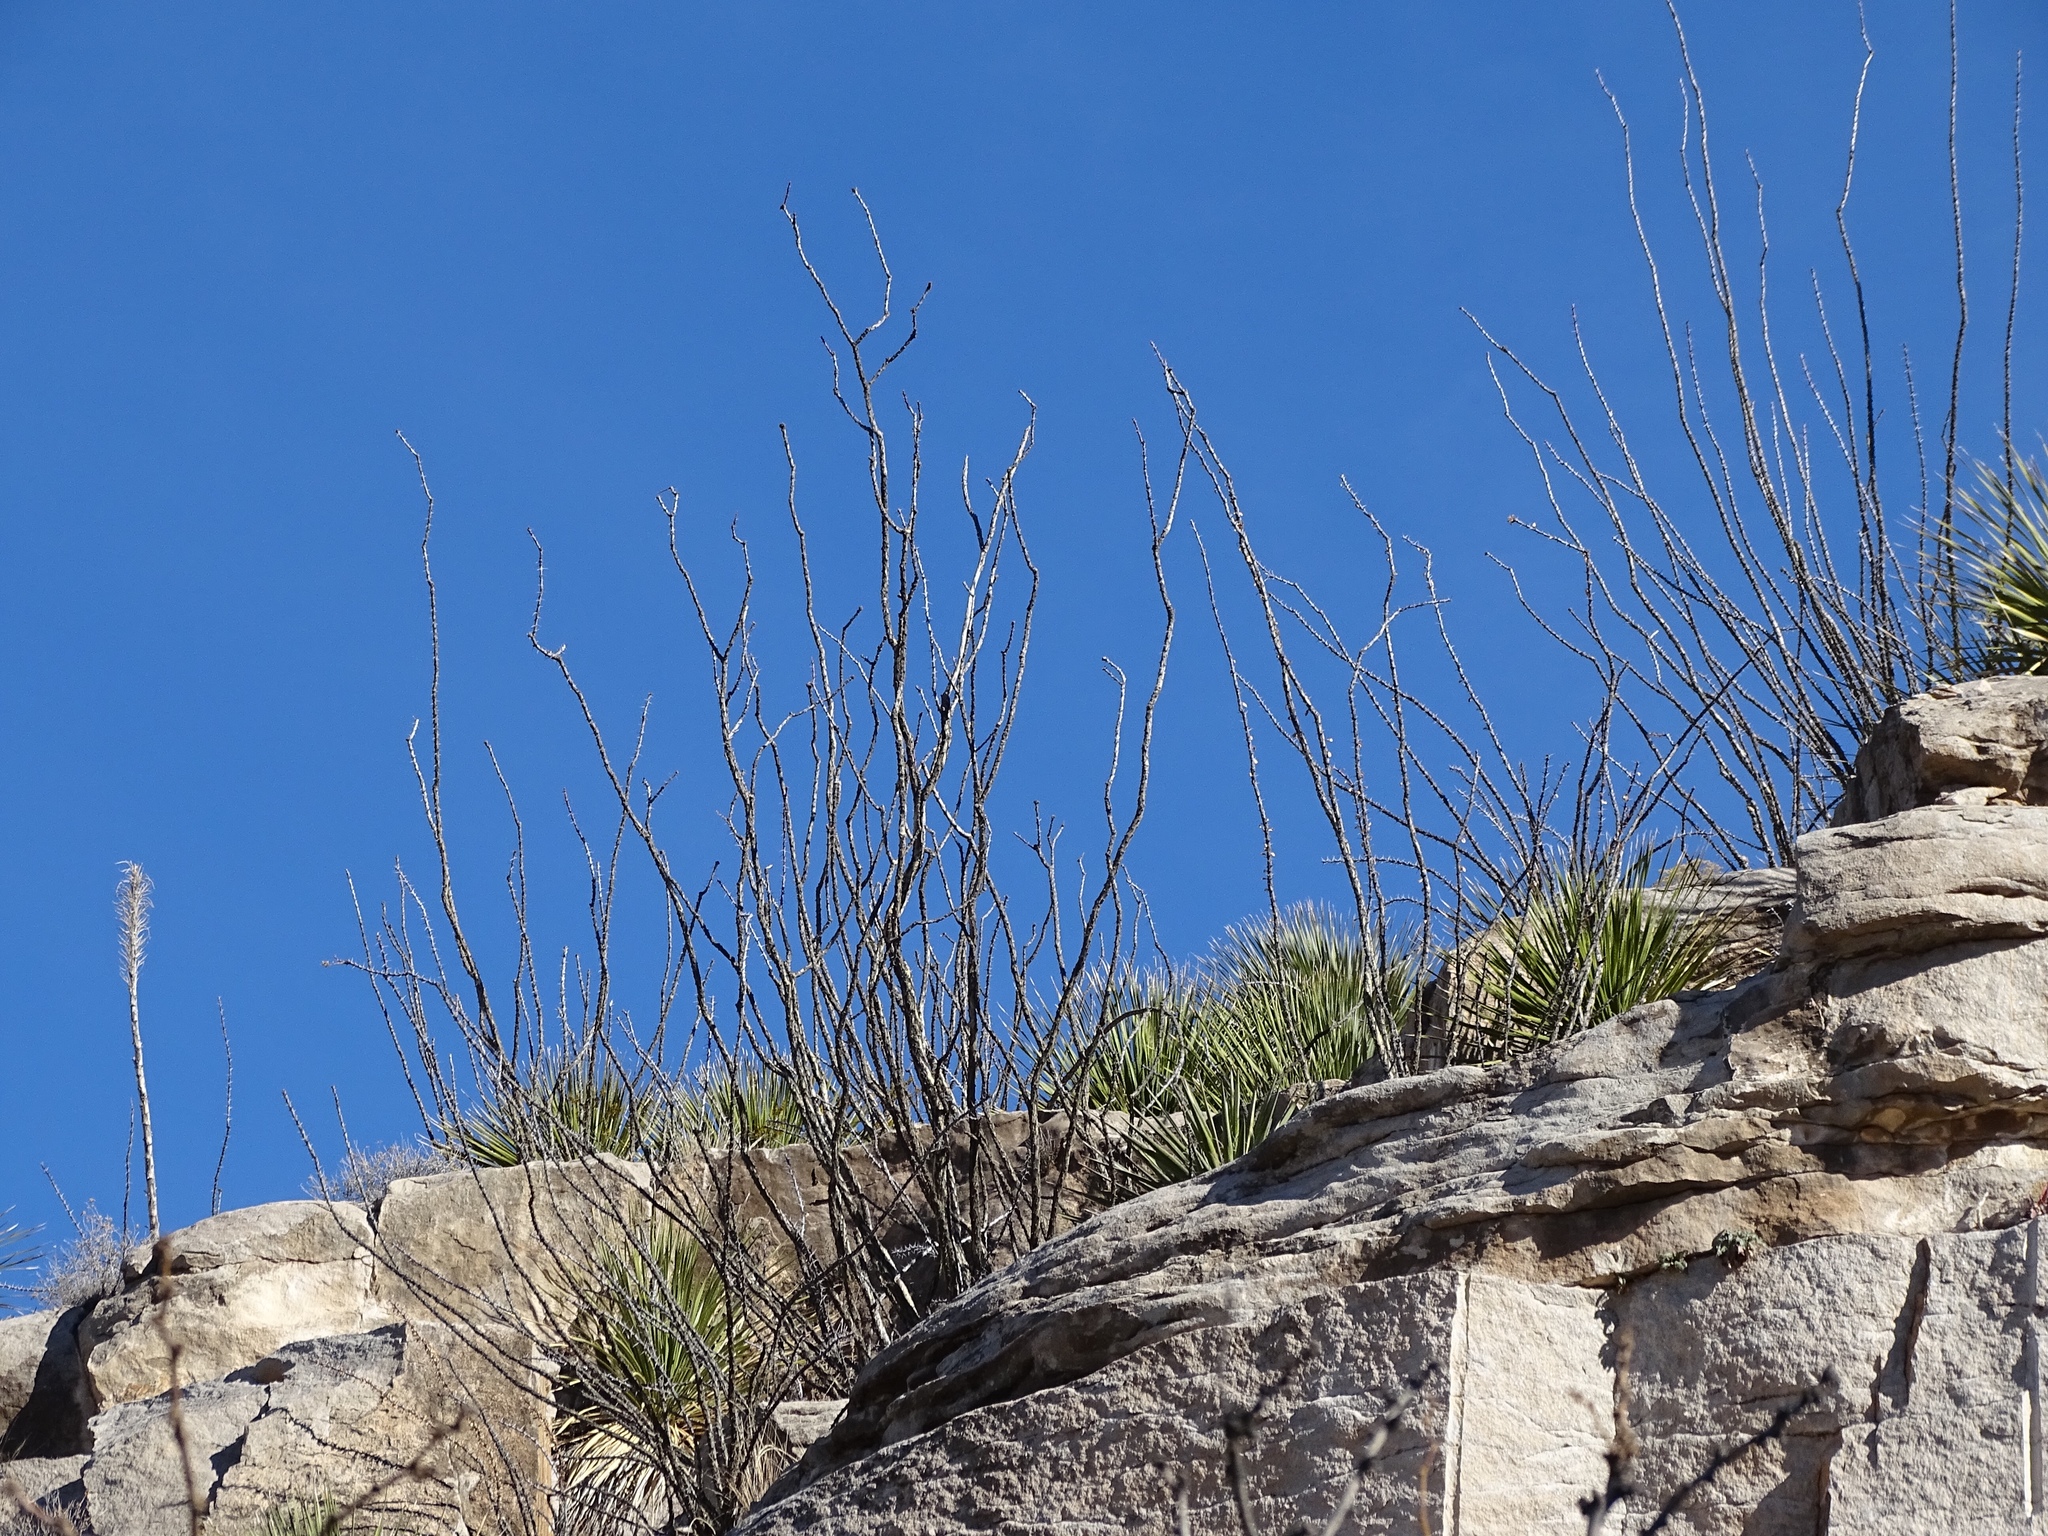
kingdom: Plantae
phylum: Tracheophyta
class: Magnoliopsida
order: Ericales
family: Fouquieriaceae
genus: Fouquieria
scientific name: Fouquieria splendens
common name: Vine-cactus
